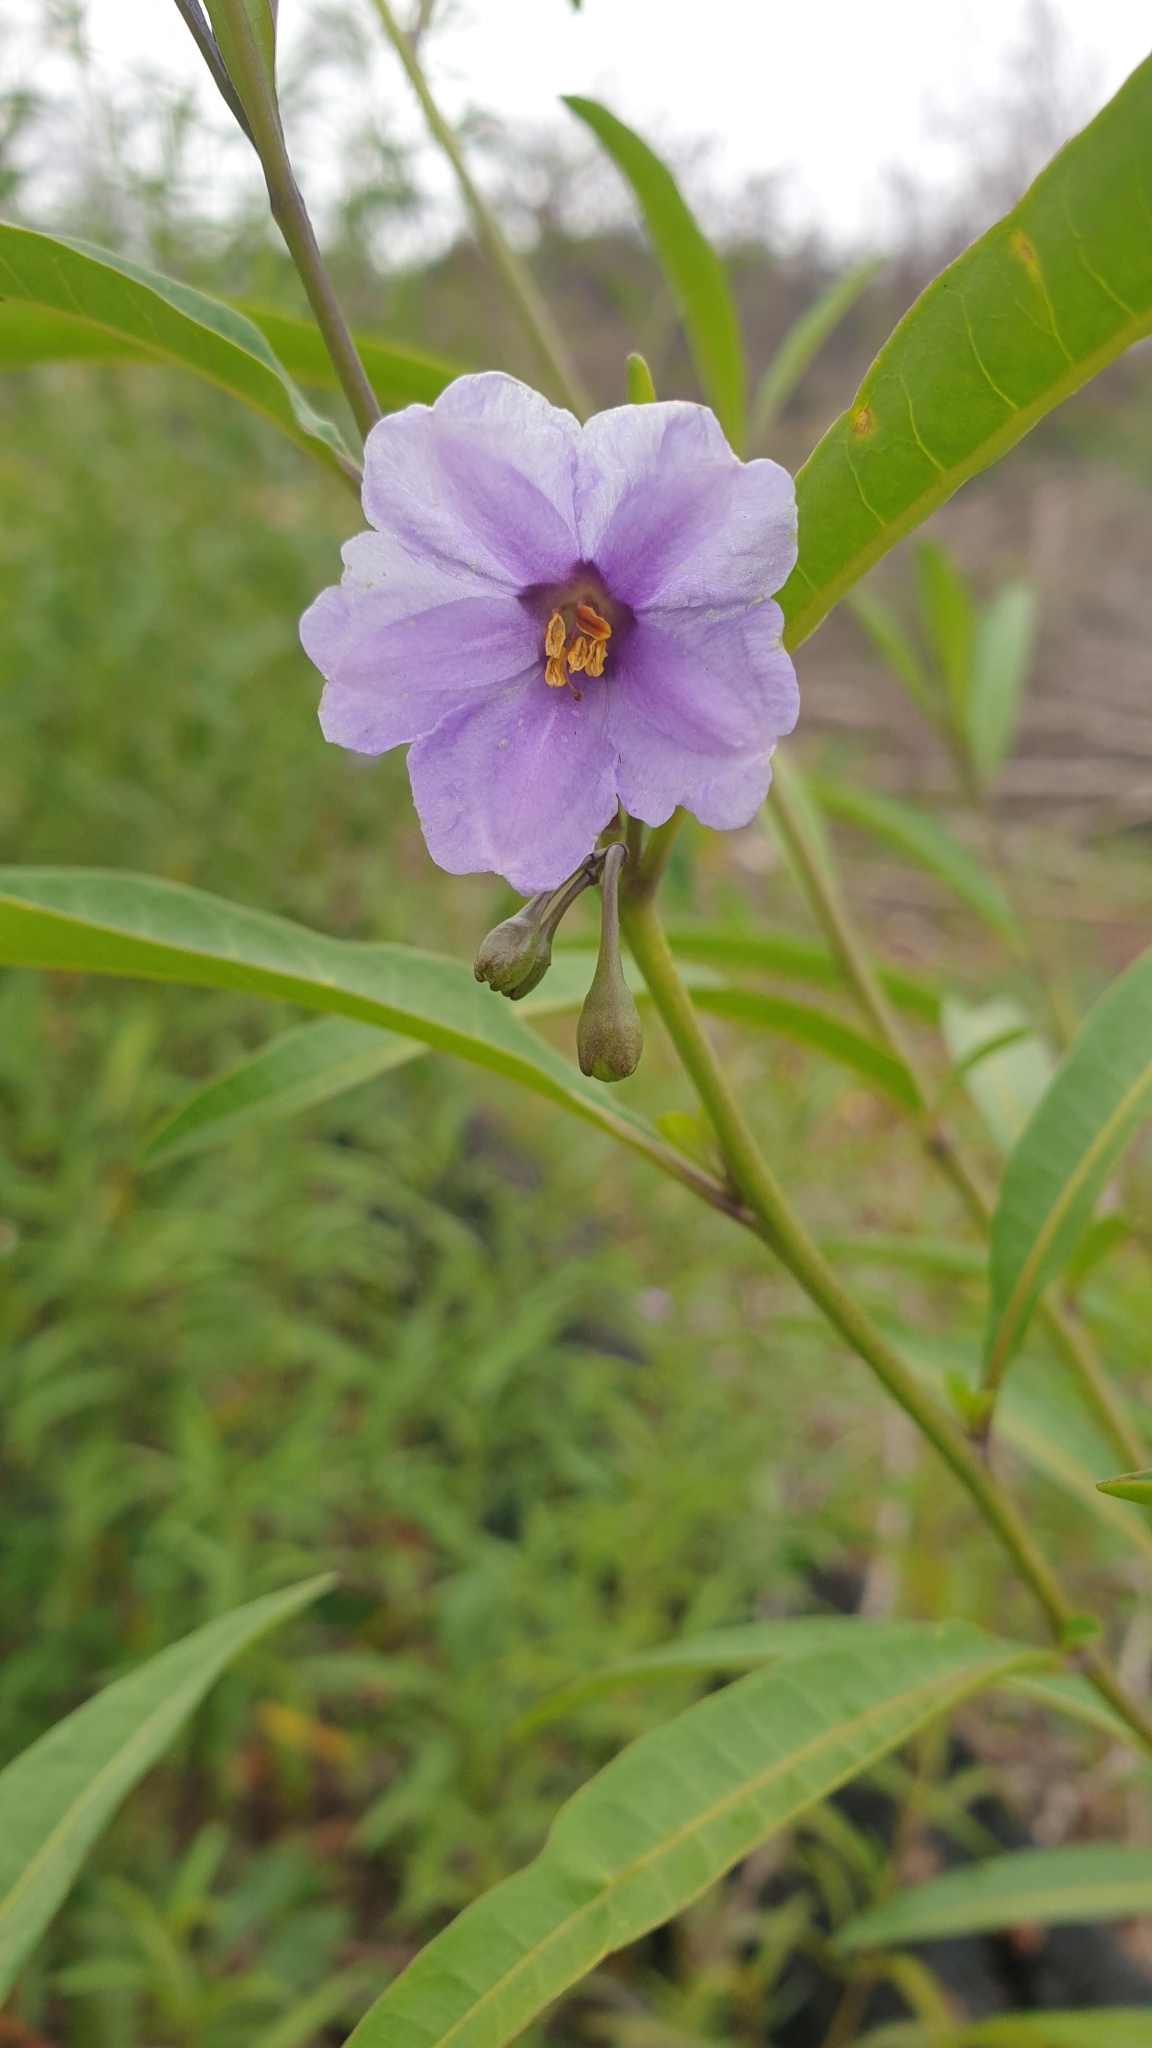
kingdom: Plantae
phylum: Tracheophyta
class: Magnoliopsida
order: Solanales
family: Solanaceae
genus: Solanum
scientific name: Solanum simile
